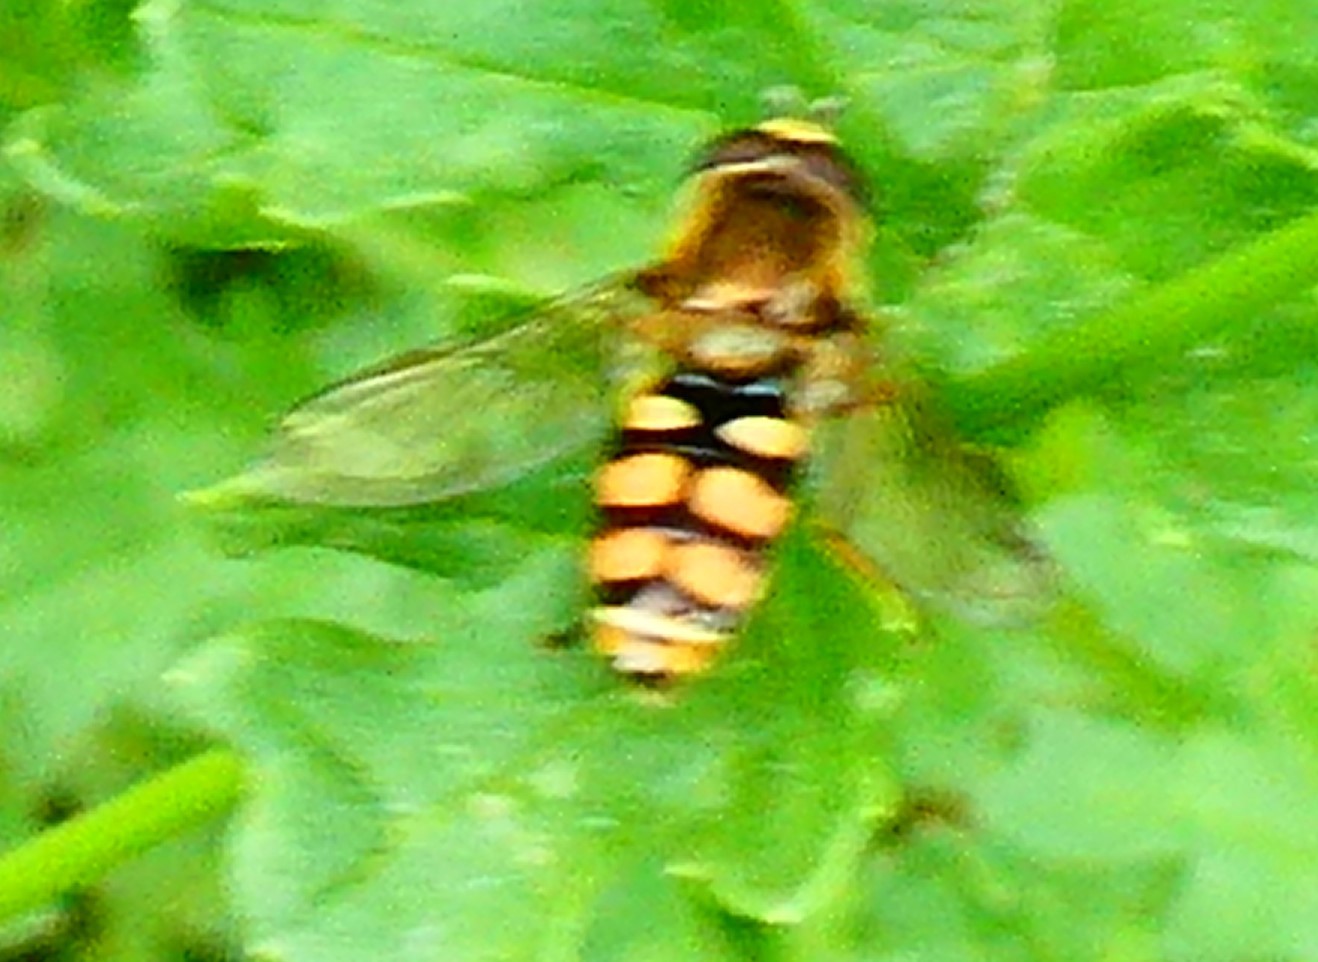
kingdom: Animalia
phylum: Arthropoda
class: Insecta
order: Diptera
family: Syrphidae
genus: Eupeodes
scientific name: Eupeodes corollae
